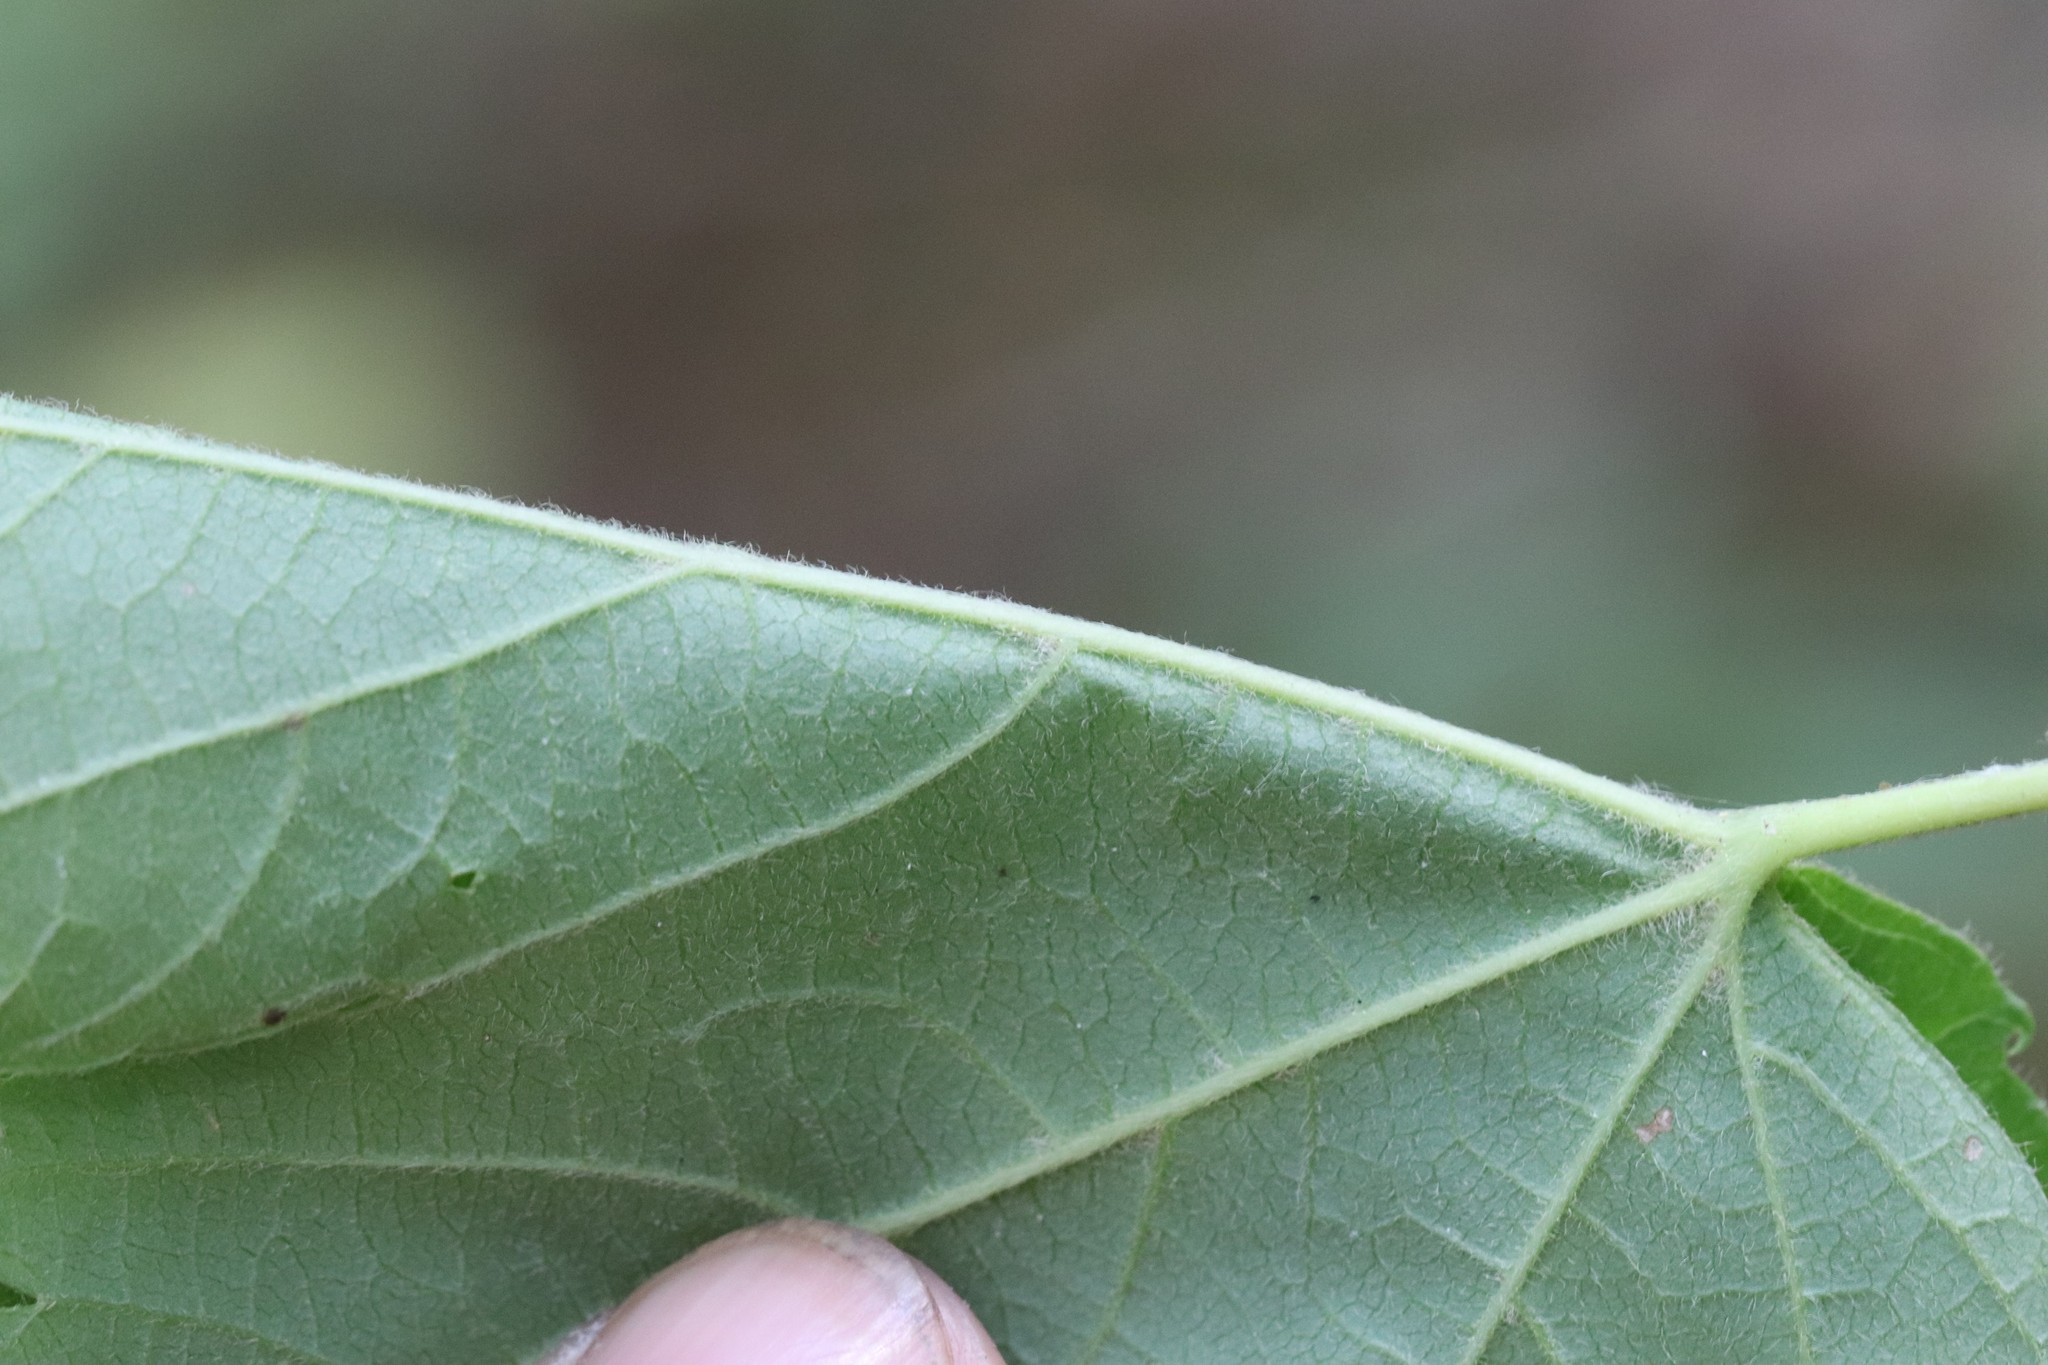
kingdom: Plantae
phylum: Tracheophyta
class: Magnoliopsida
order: Sapindales
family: Sapindaceae
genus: Acer
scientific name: Acer ukurunduense
